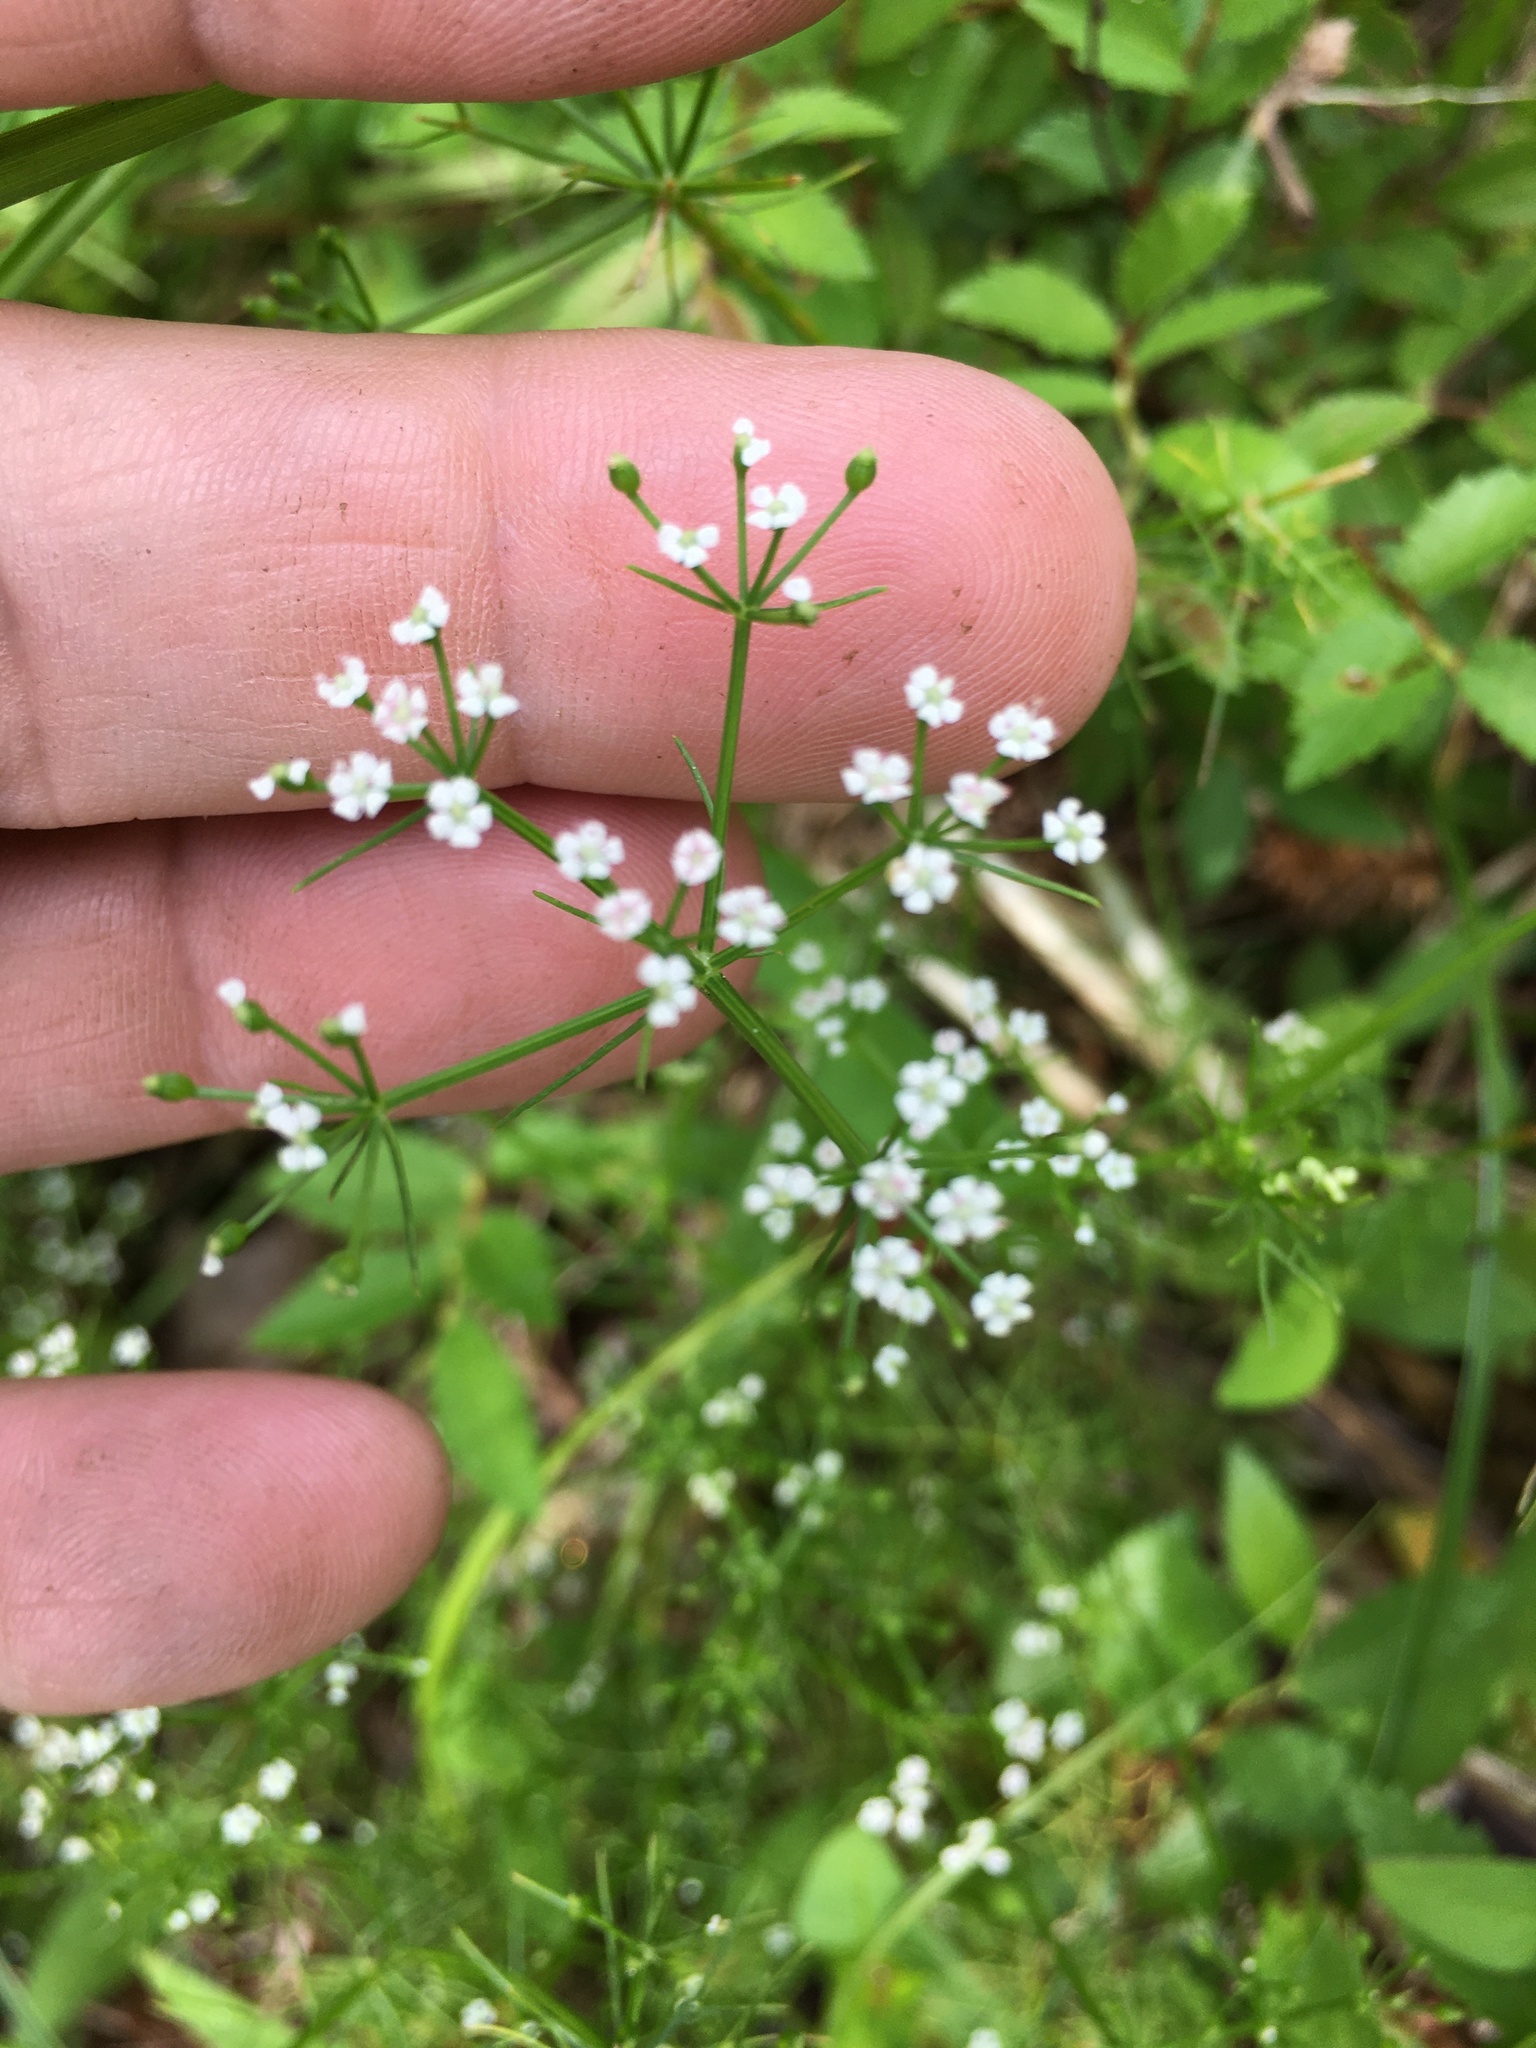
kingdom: Plantae
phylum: Tracheophyta
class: Magnoliopsida
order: Apiales
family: Apiaceae
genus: Ptilimnium
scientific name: Ptilimnium capillaceum
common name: Herbwilliam
